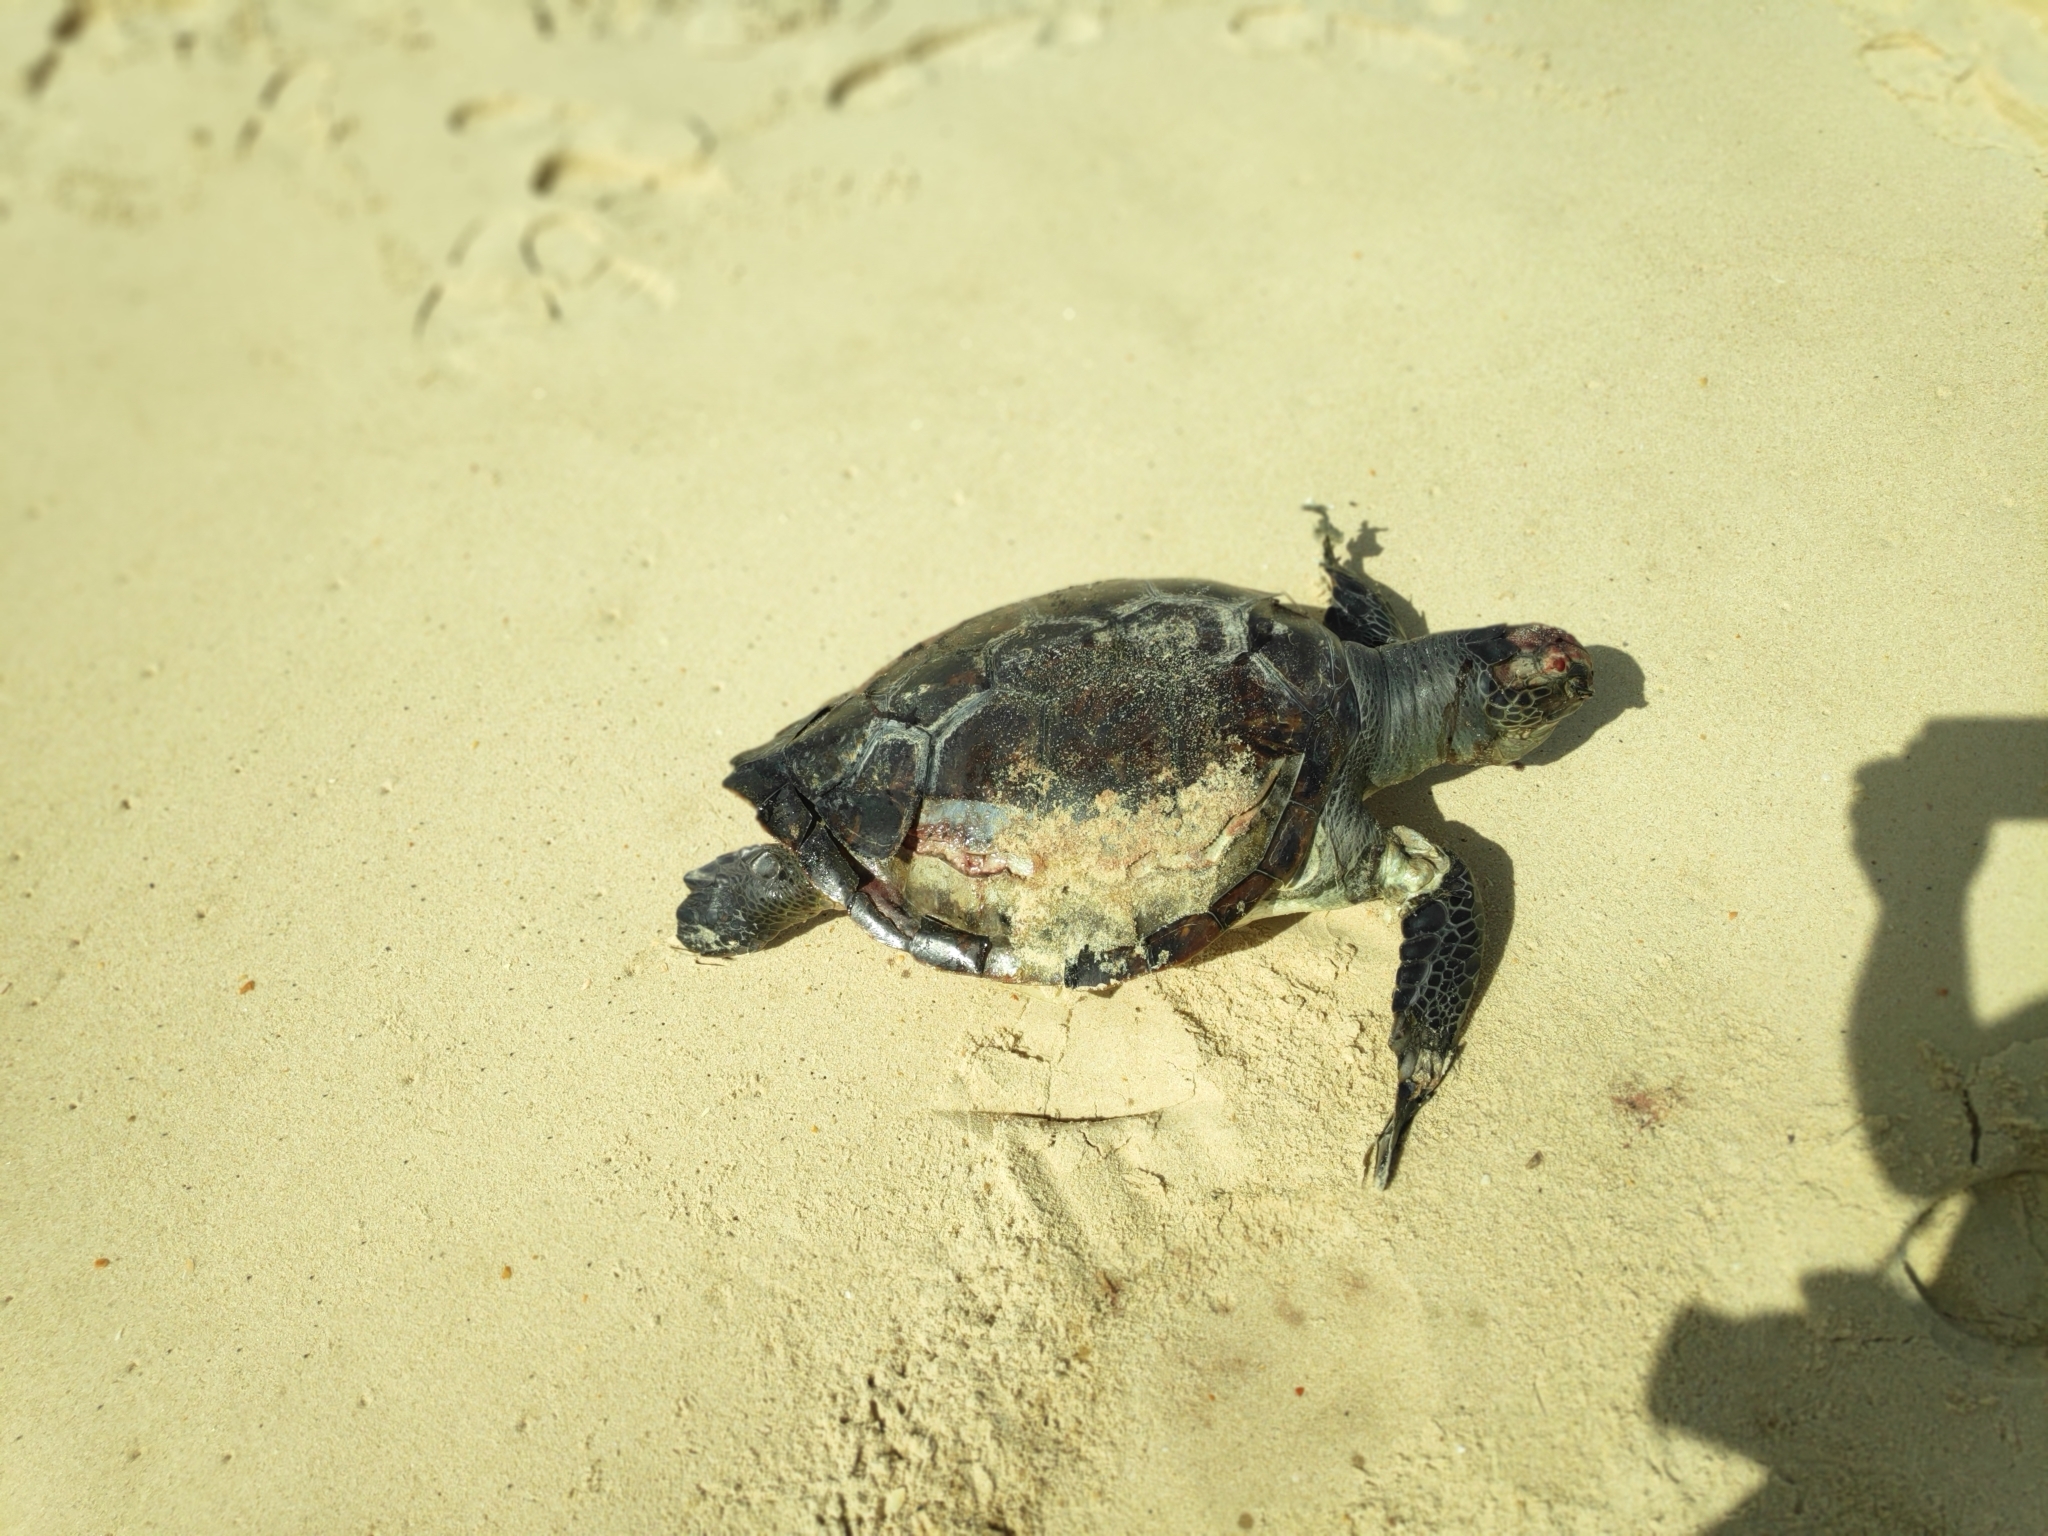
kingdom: Animalia
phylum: Chordata
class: Testudines
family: Cheloniidae
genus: Chelonia
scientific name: Chelonia mydas
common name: Green turtle
